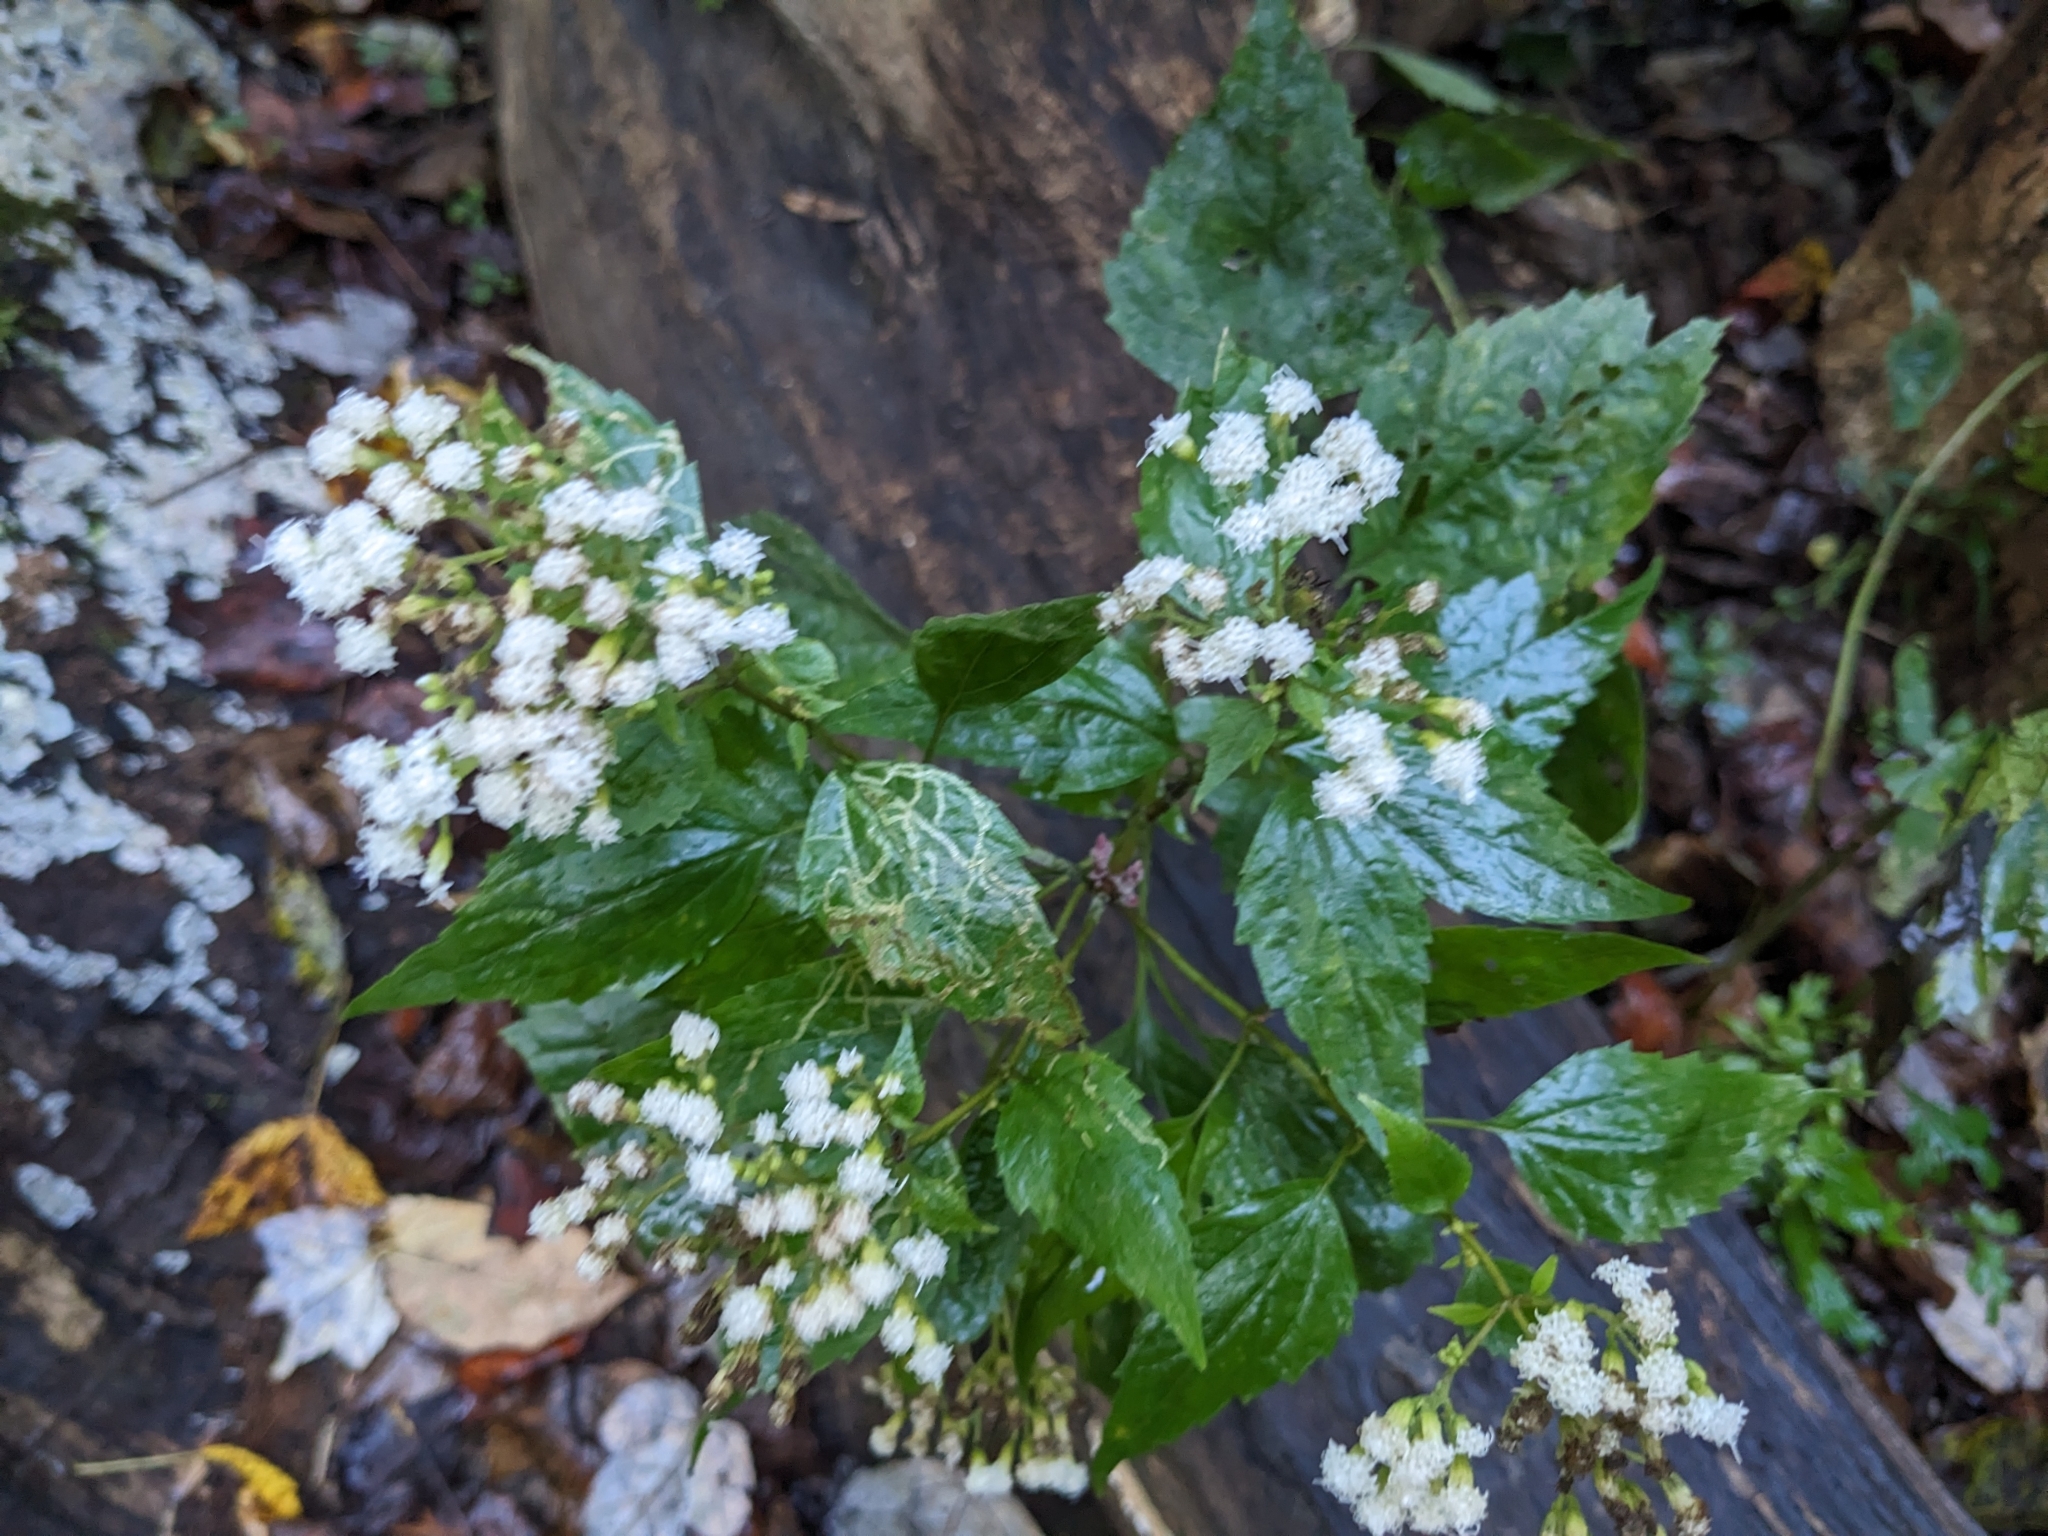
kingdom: Plantae
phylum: Tracheophyta
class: Magnoliopsida
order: Asterales
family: Asteraceae
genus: Ageratina
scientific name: Ageratina altissima
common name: White snakeroot
